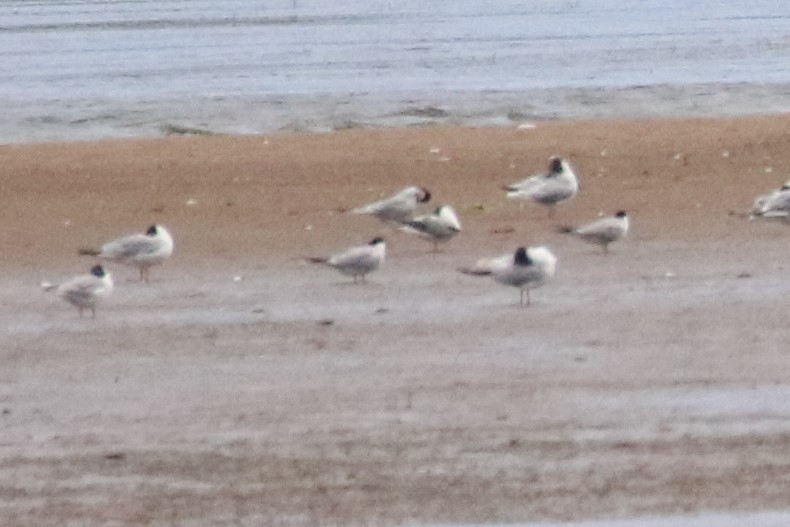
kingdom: Animalia
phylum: Chordata
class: Aves
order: Charadriiformes
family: Laridae
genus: Sterna
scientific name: Sterna hirundo
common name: Common tern
